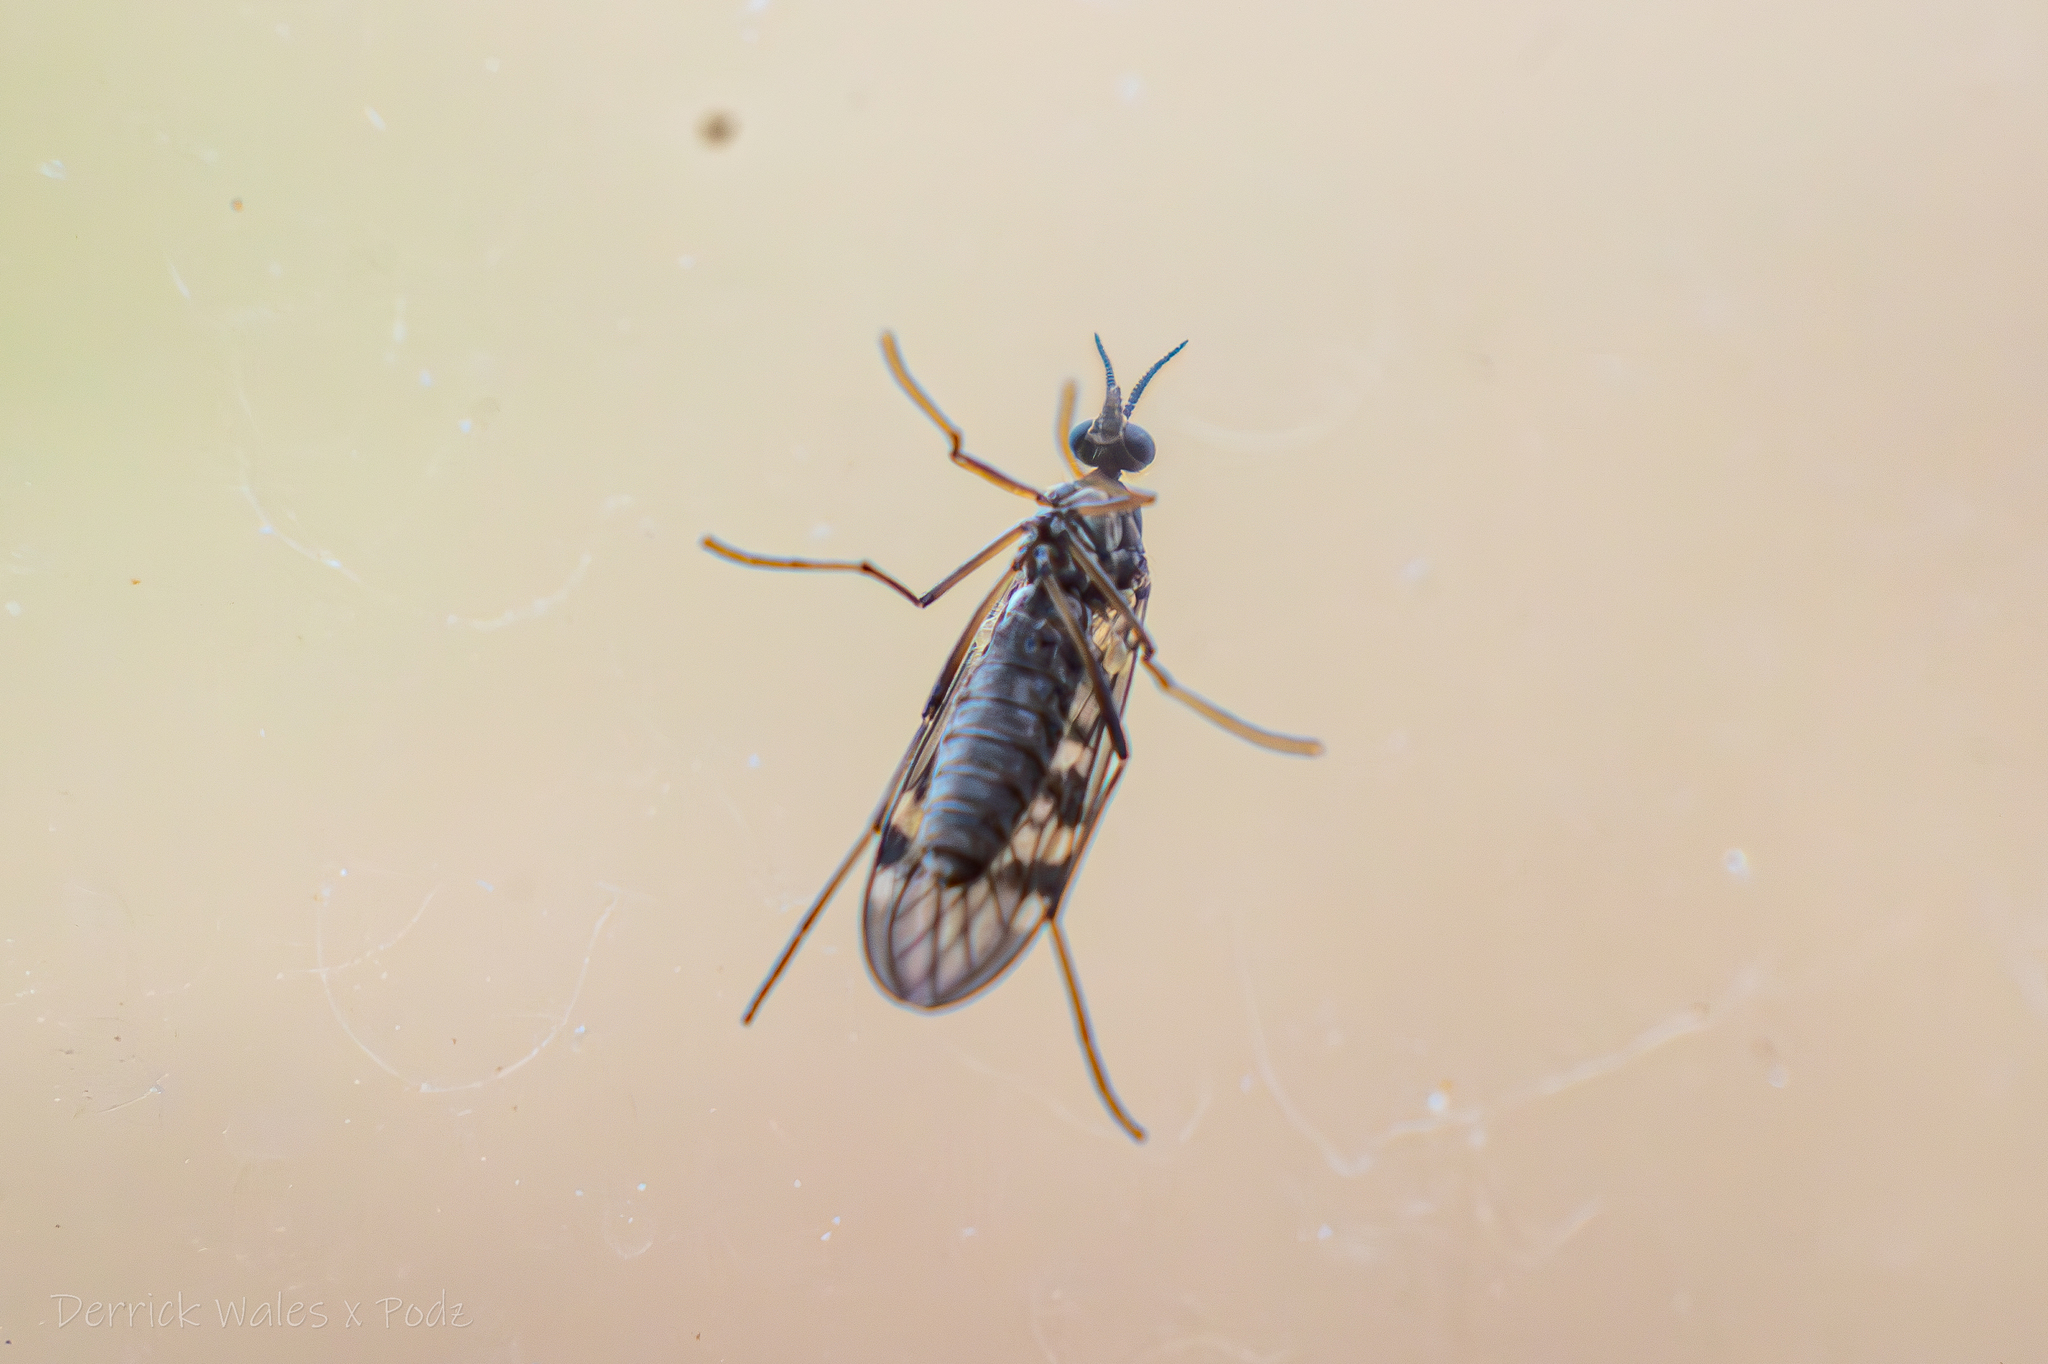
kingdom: Animalia
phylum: Arthropoda
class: Insecta
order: Diptera
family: Anisopodidae
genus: Sylvicola
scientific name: Sylvicola notialis
